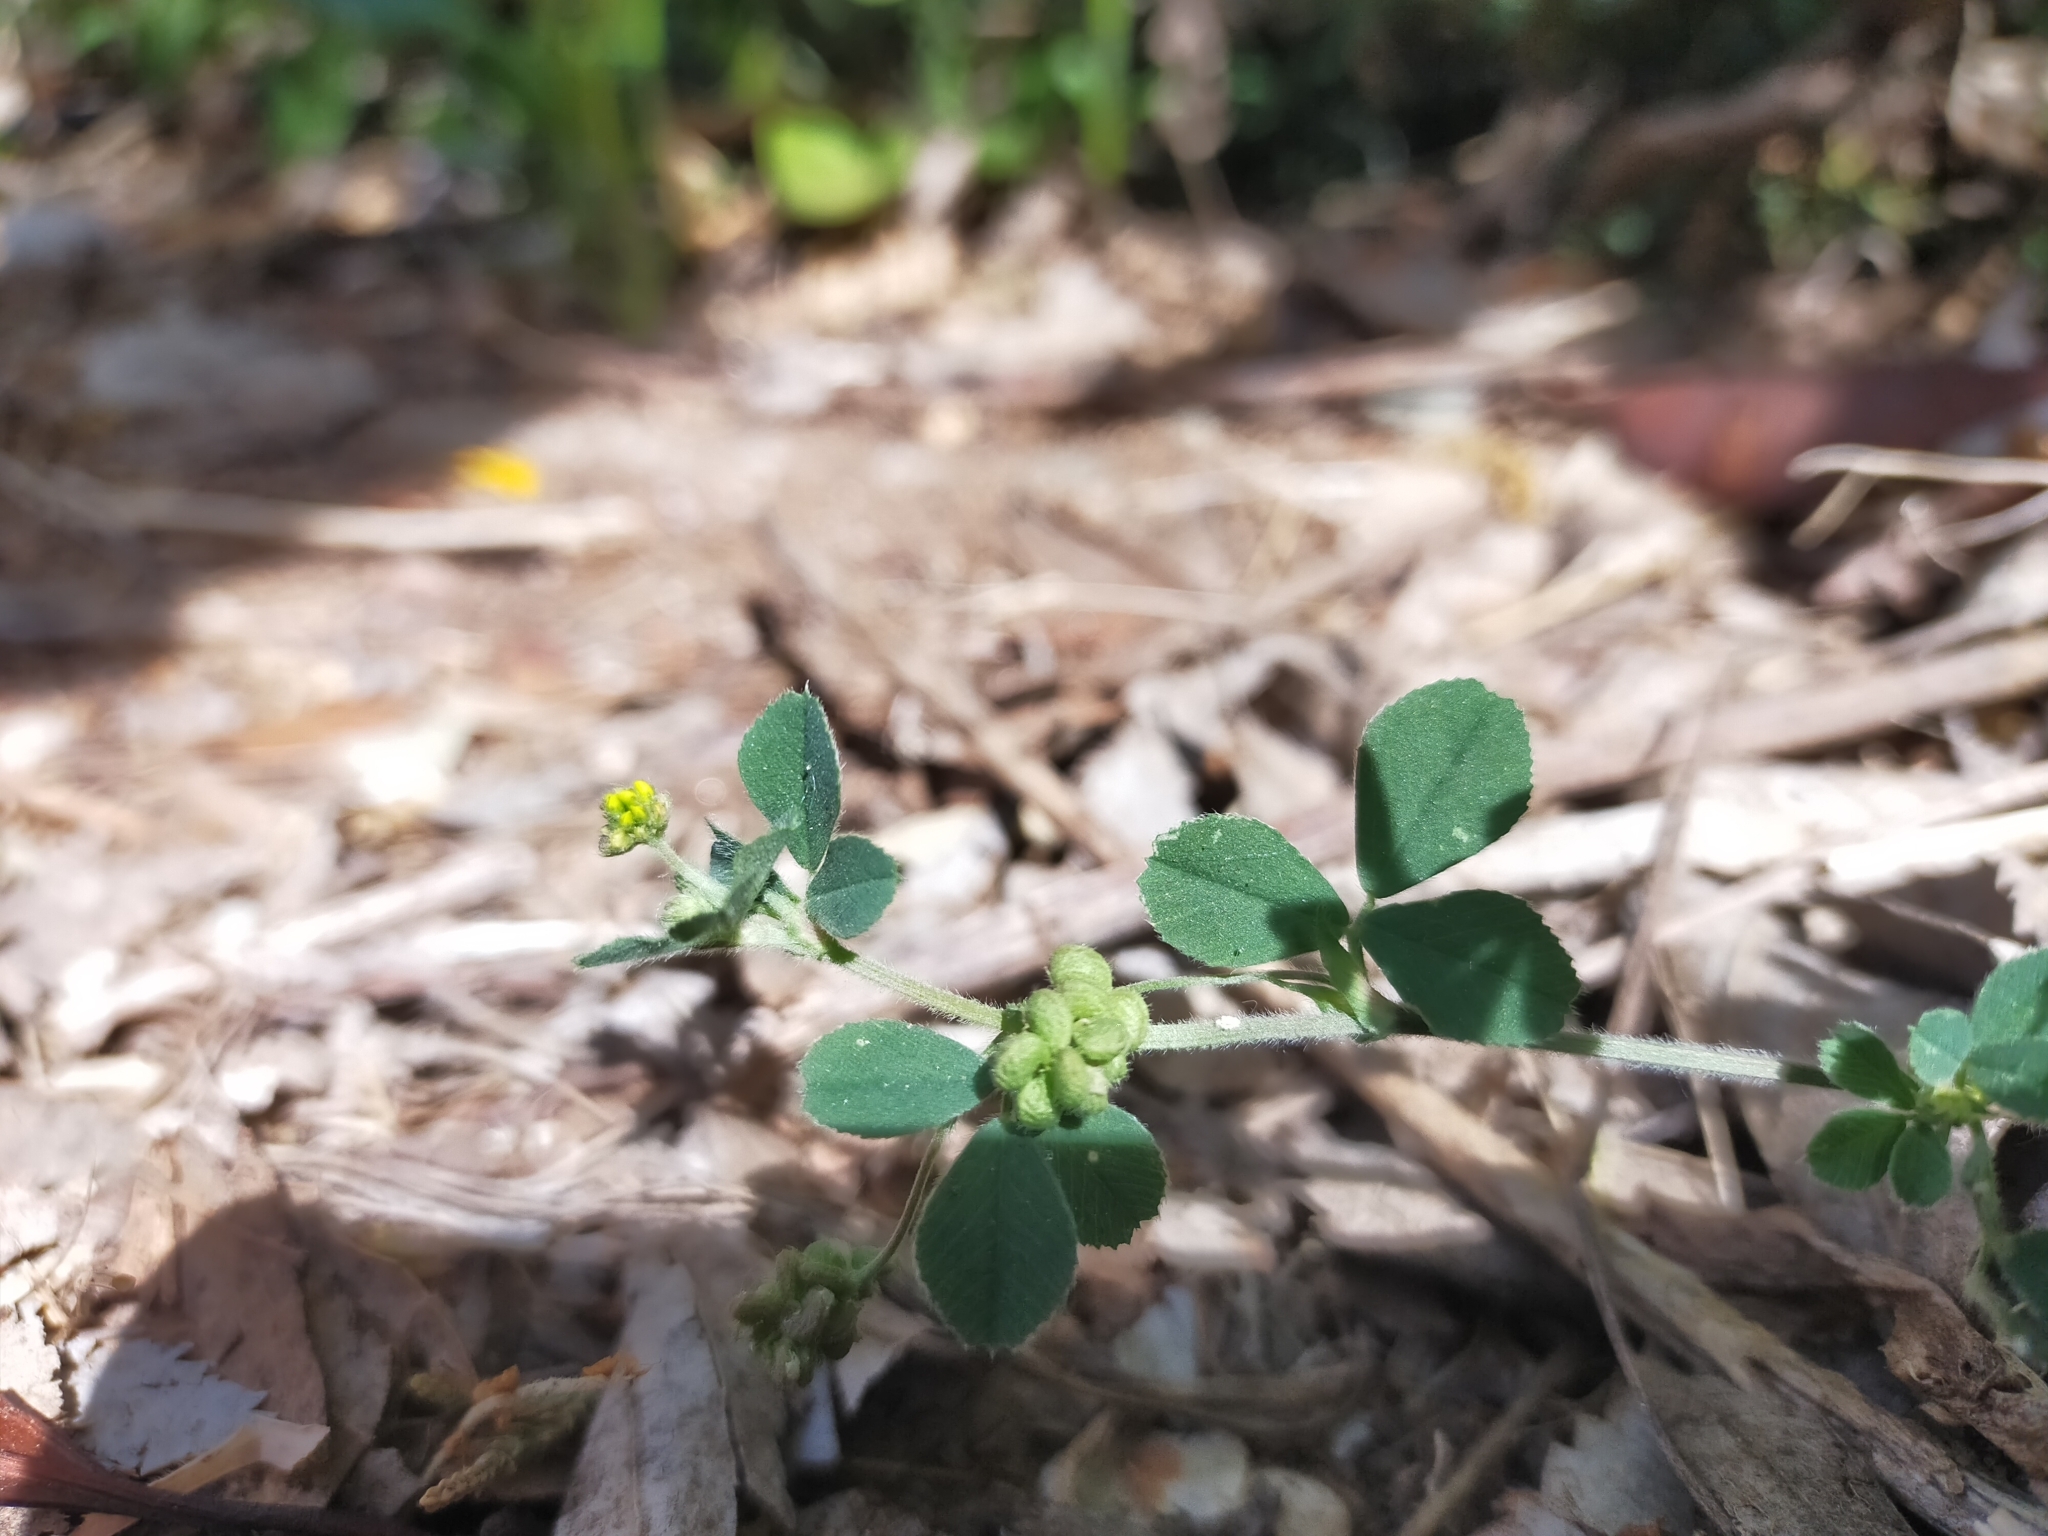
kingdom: Plantae
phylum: Tracheophyta
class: Magnoliopsida
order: Fabales
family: Fabaceae
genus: Medicago
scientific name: Medicago lupulina
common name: Black medick
